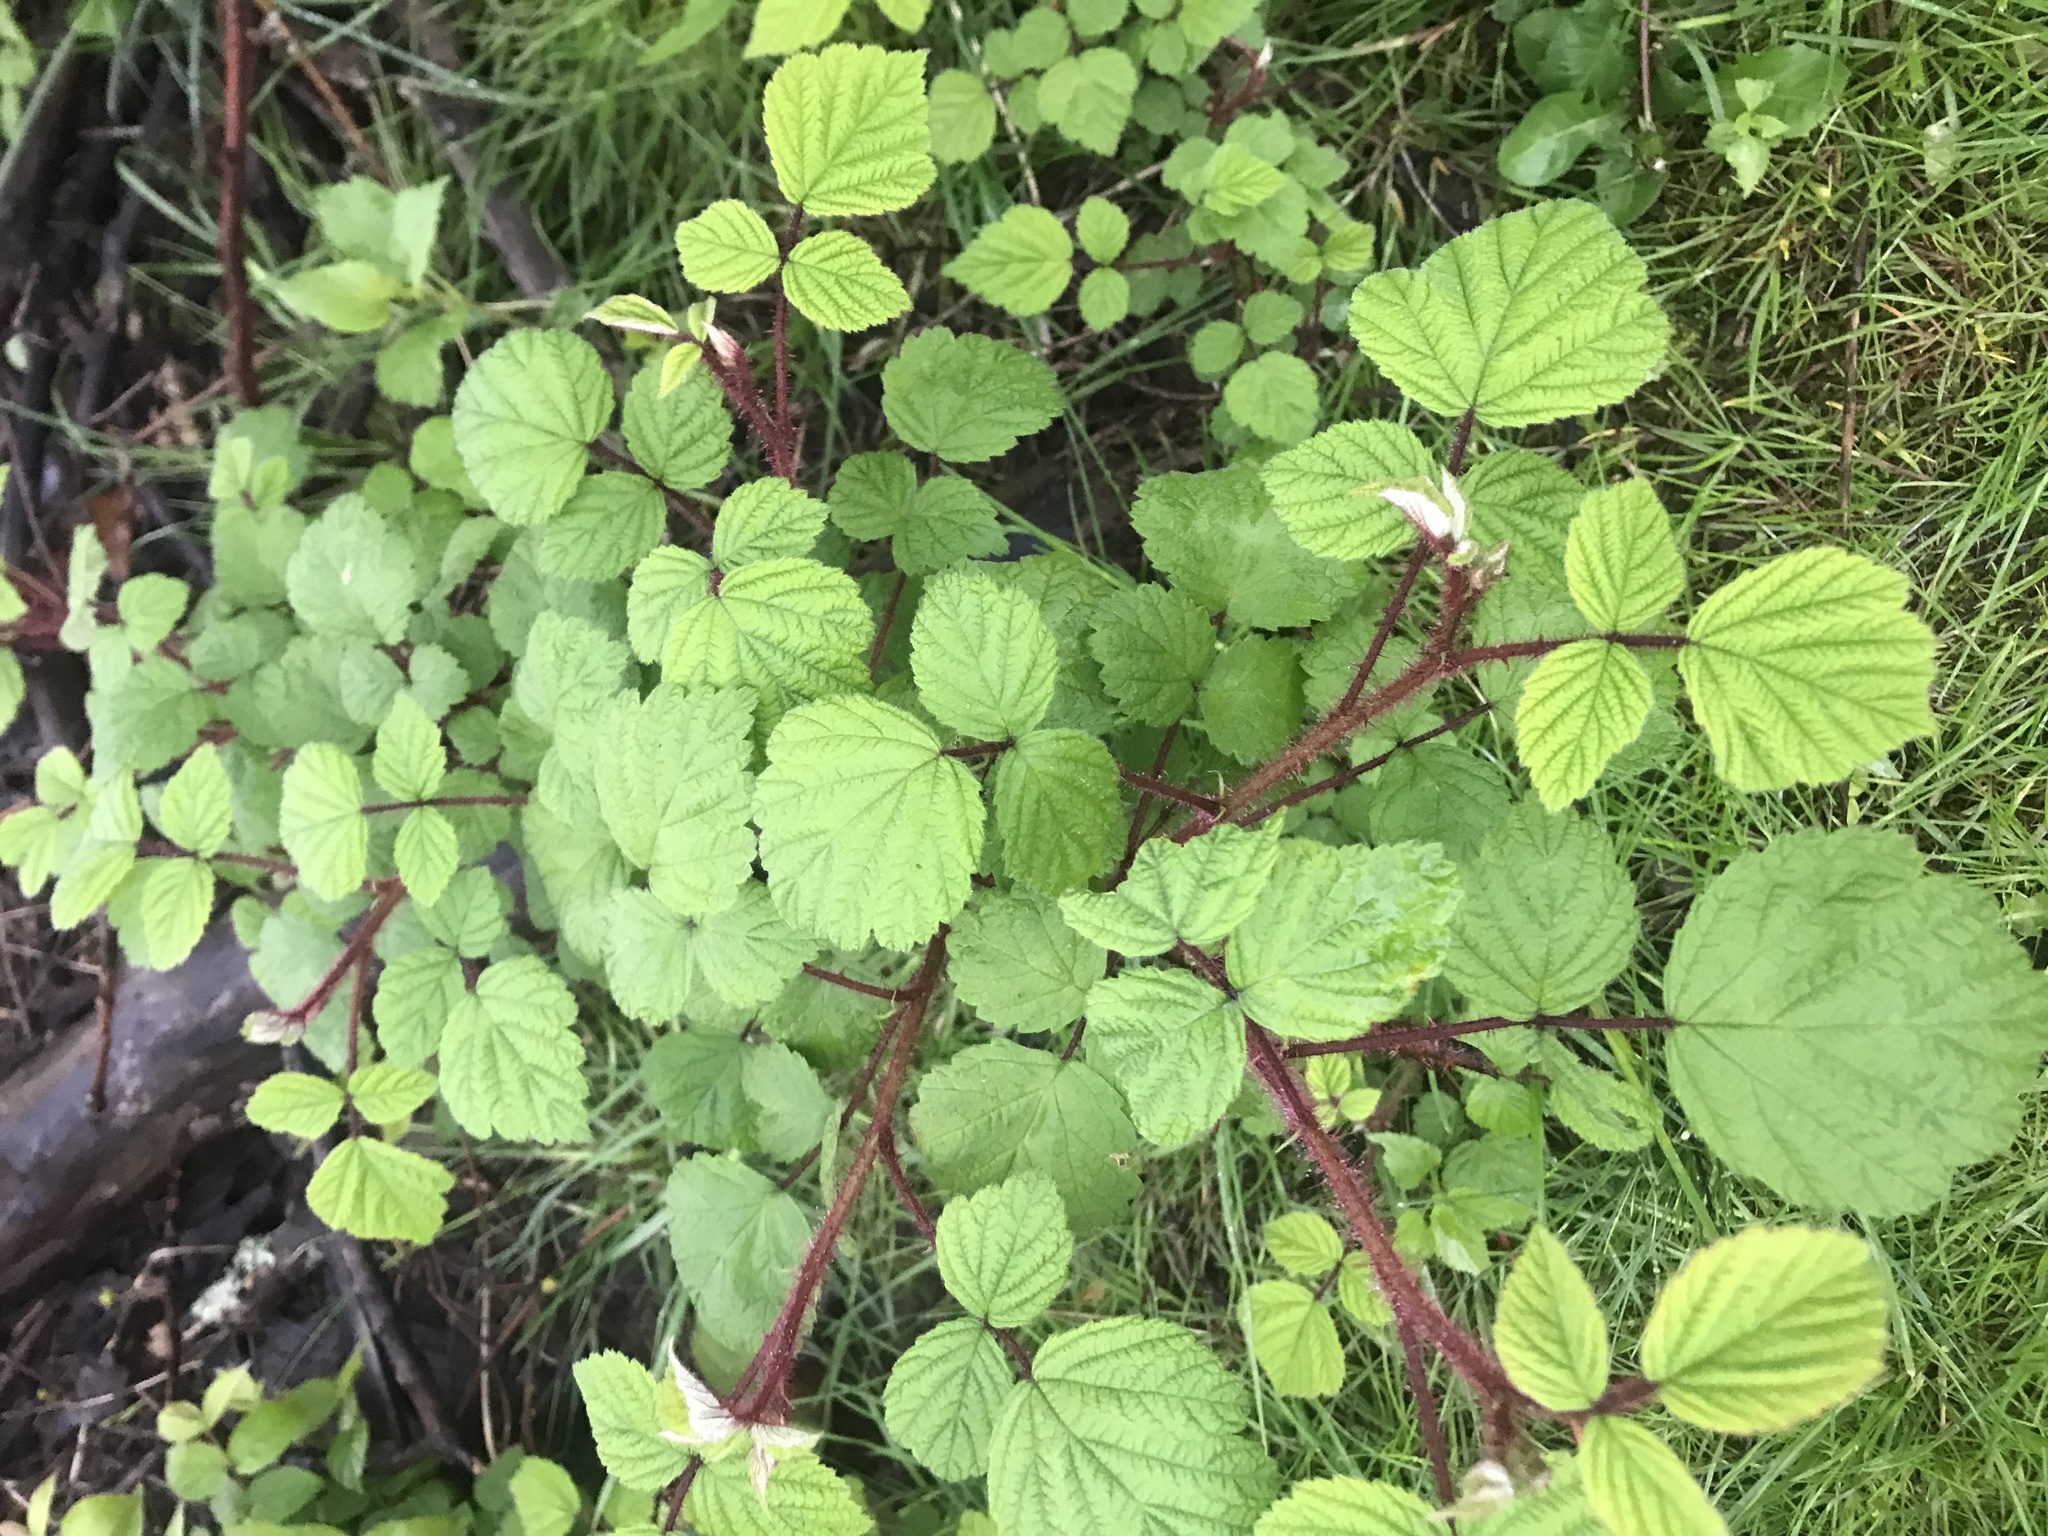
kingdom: Plantae
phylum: Tracheophyta
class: Magnoliopsida
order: Rosales
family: Rosaceae
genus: Rubus
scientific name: Rubus phoenicolasius
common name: Japanese wineberry
